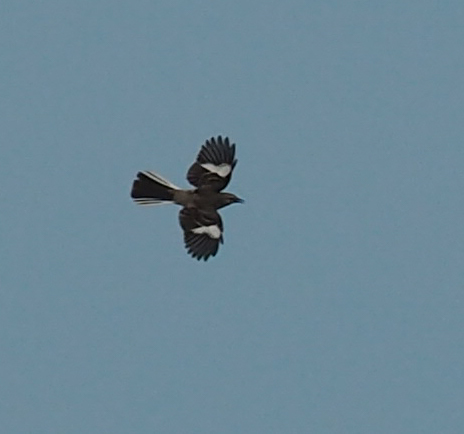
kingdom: Animalia
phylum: Chordata
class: Aves
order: Passeriformes
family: Mimidae
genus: Mimus
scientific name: Mimus polyglottos
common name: Northern mockingbird
